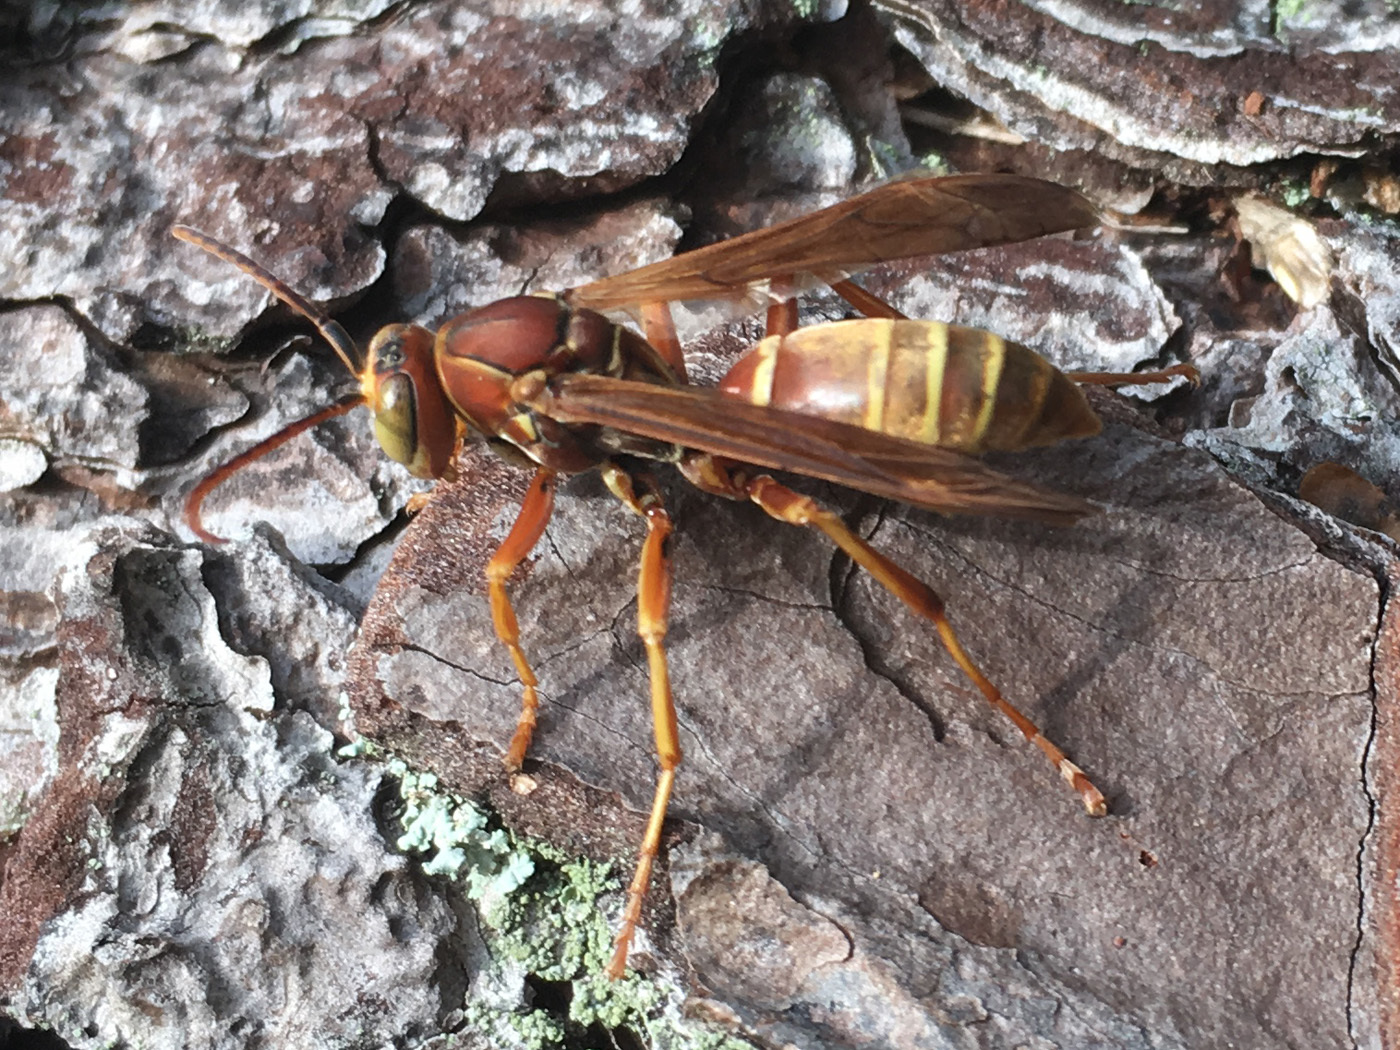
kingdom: Animalia
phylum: Arthropoda
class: Insecta
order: Hymenoptera
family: Eumenidae
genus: Polistes
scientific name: Polistes bellicosus
